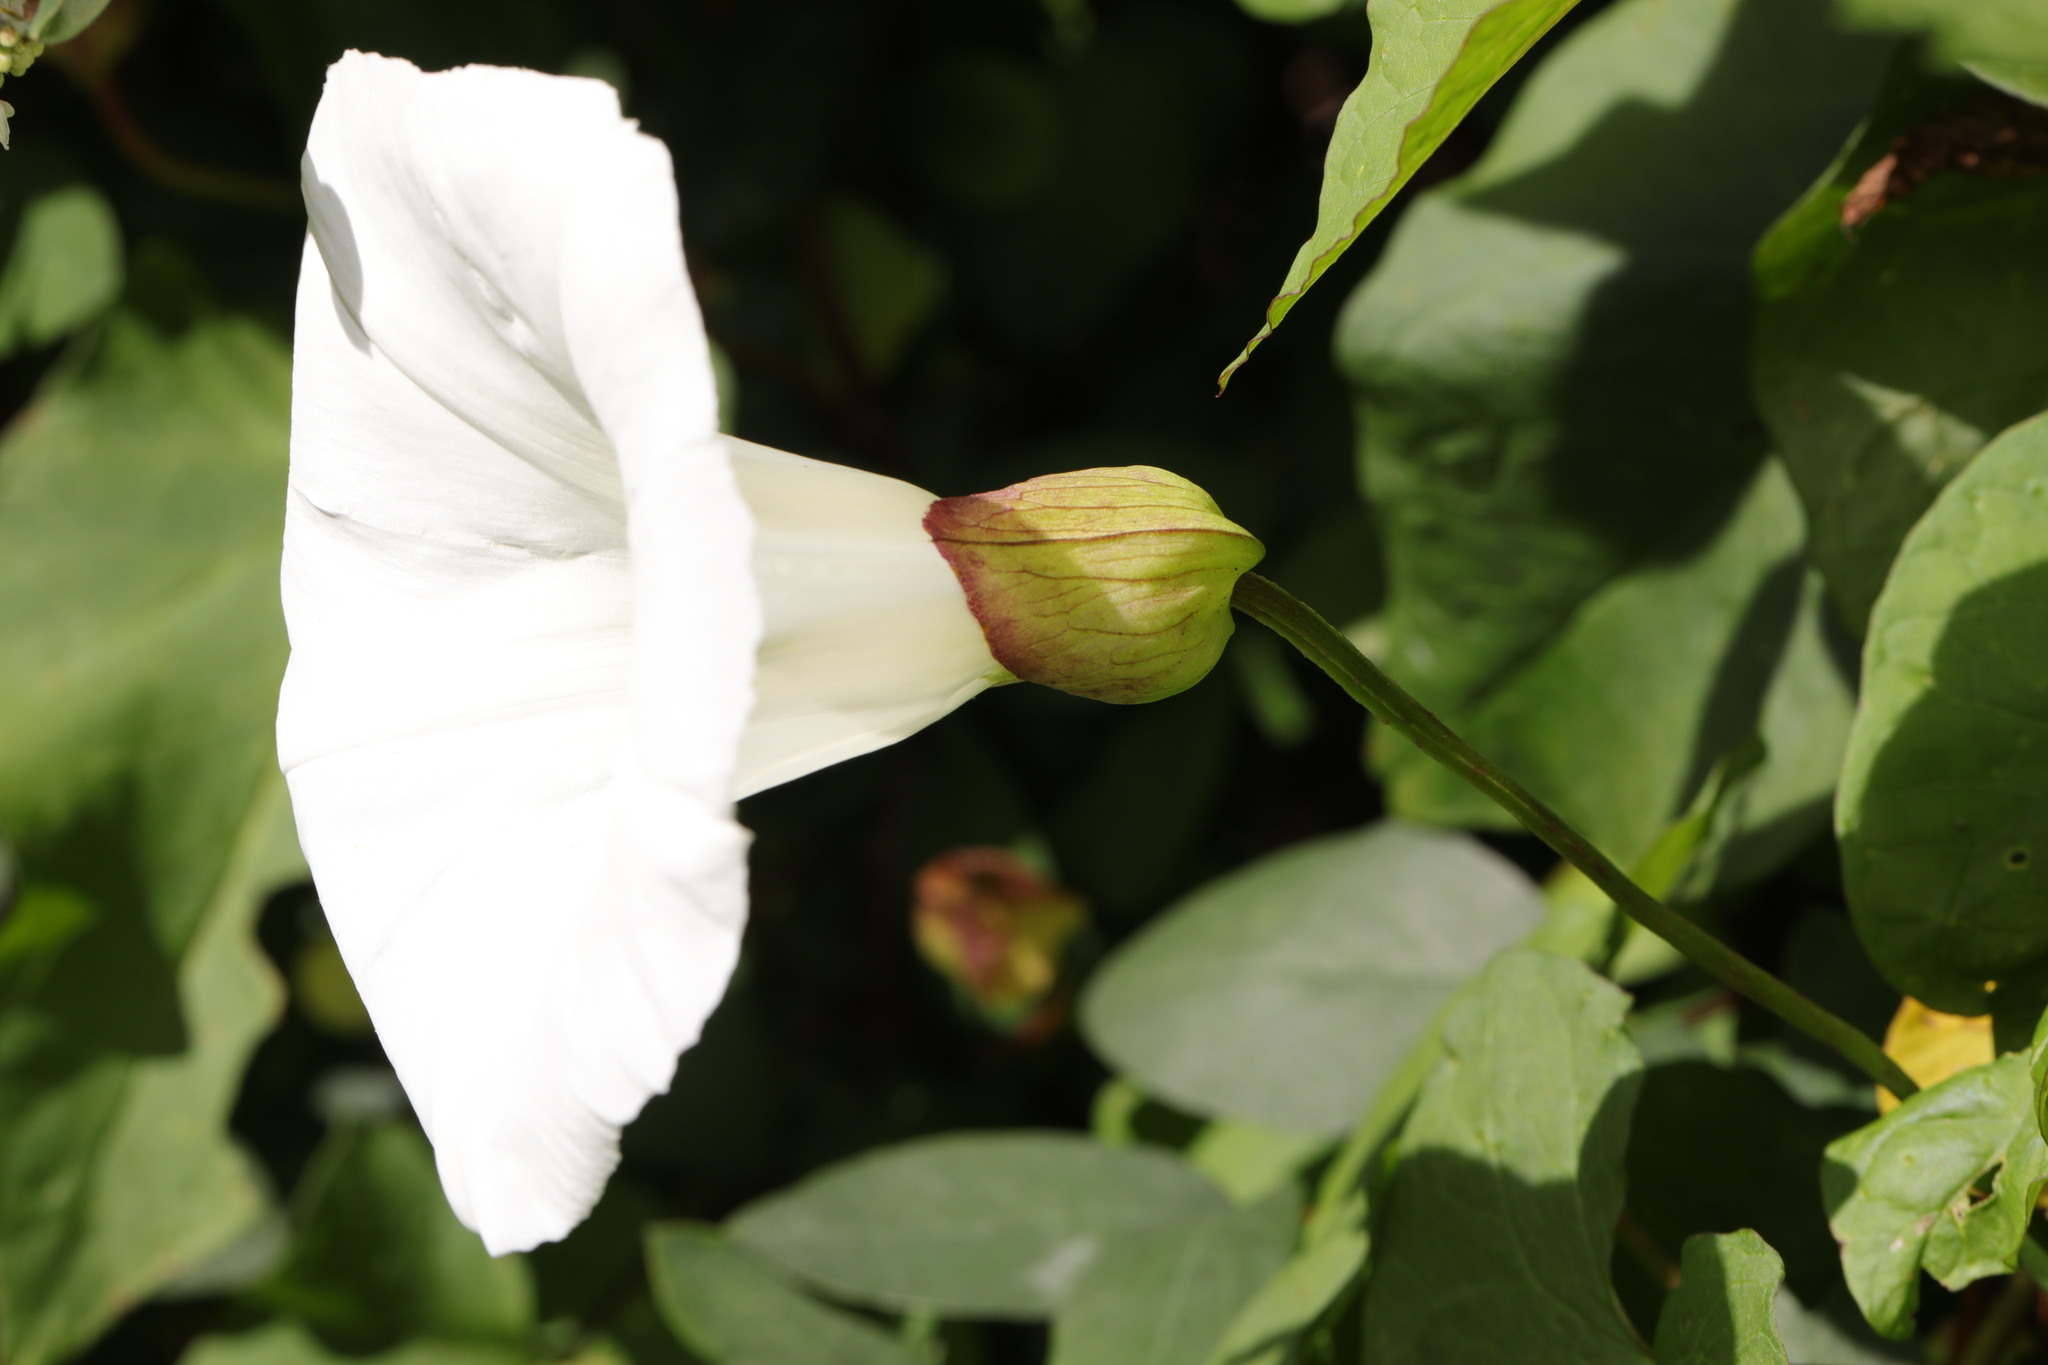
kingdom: Plantae
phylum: Tracheophyta
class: Magnoliopsida
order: Solanales
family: Convolvulaceae
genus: Calystegia
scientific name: Calystegia silvatica
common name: Large bindweed
